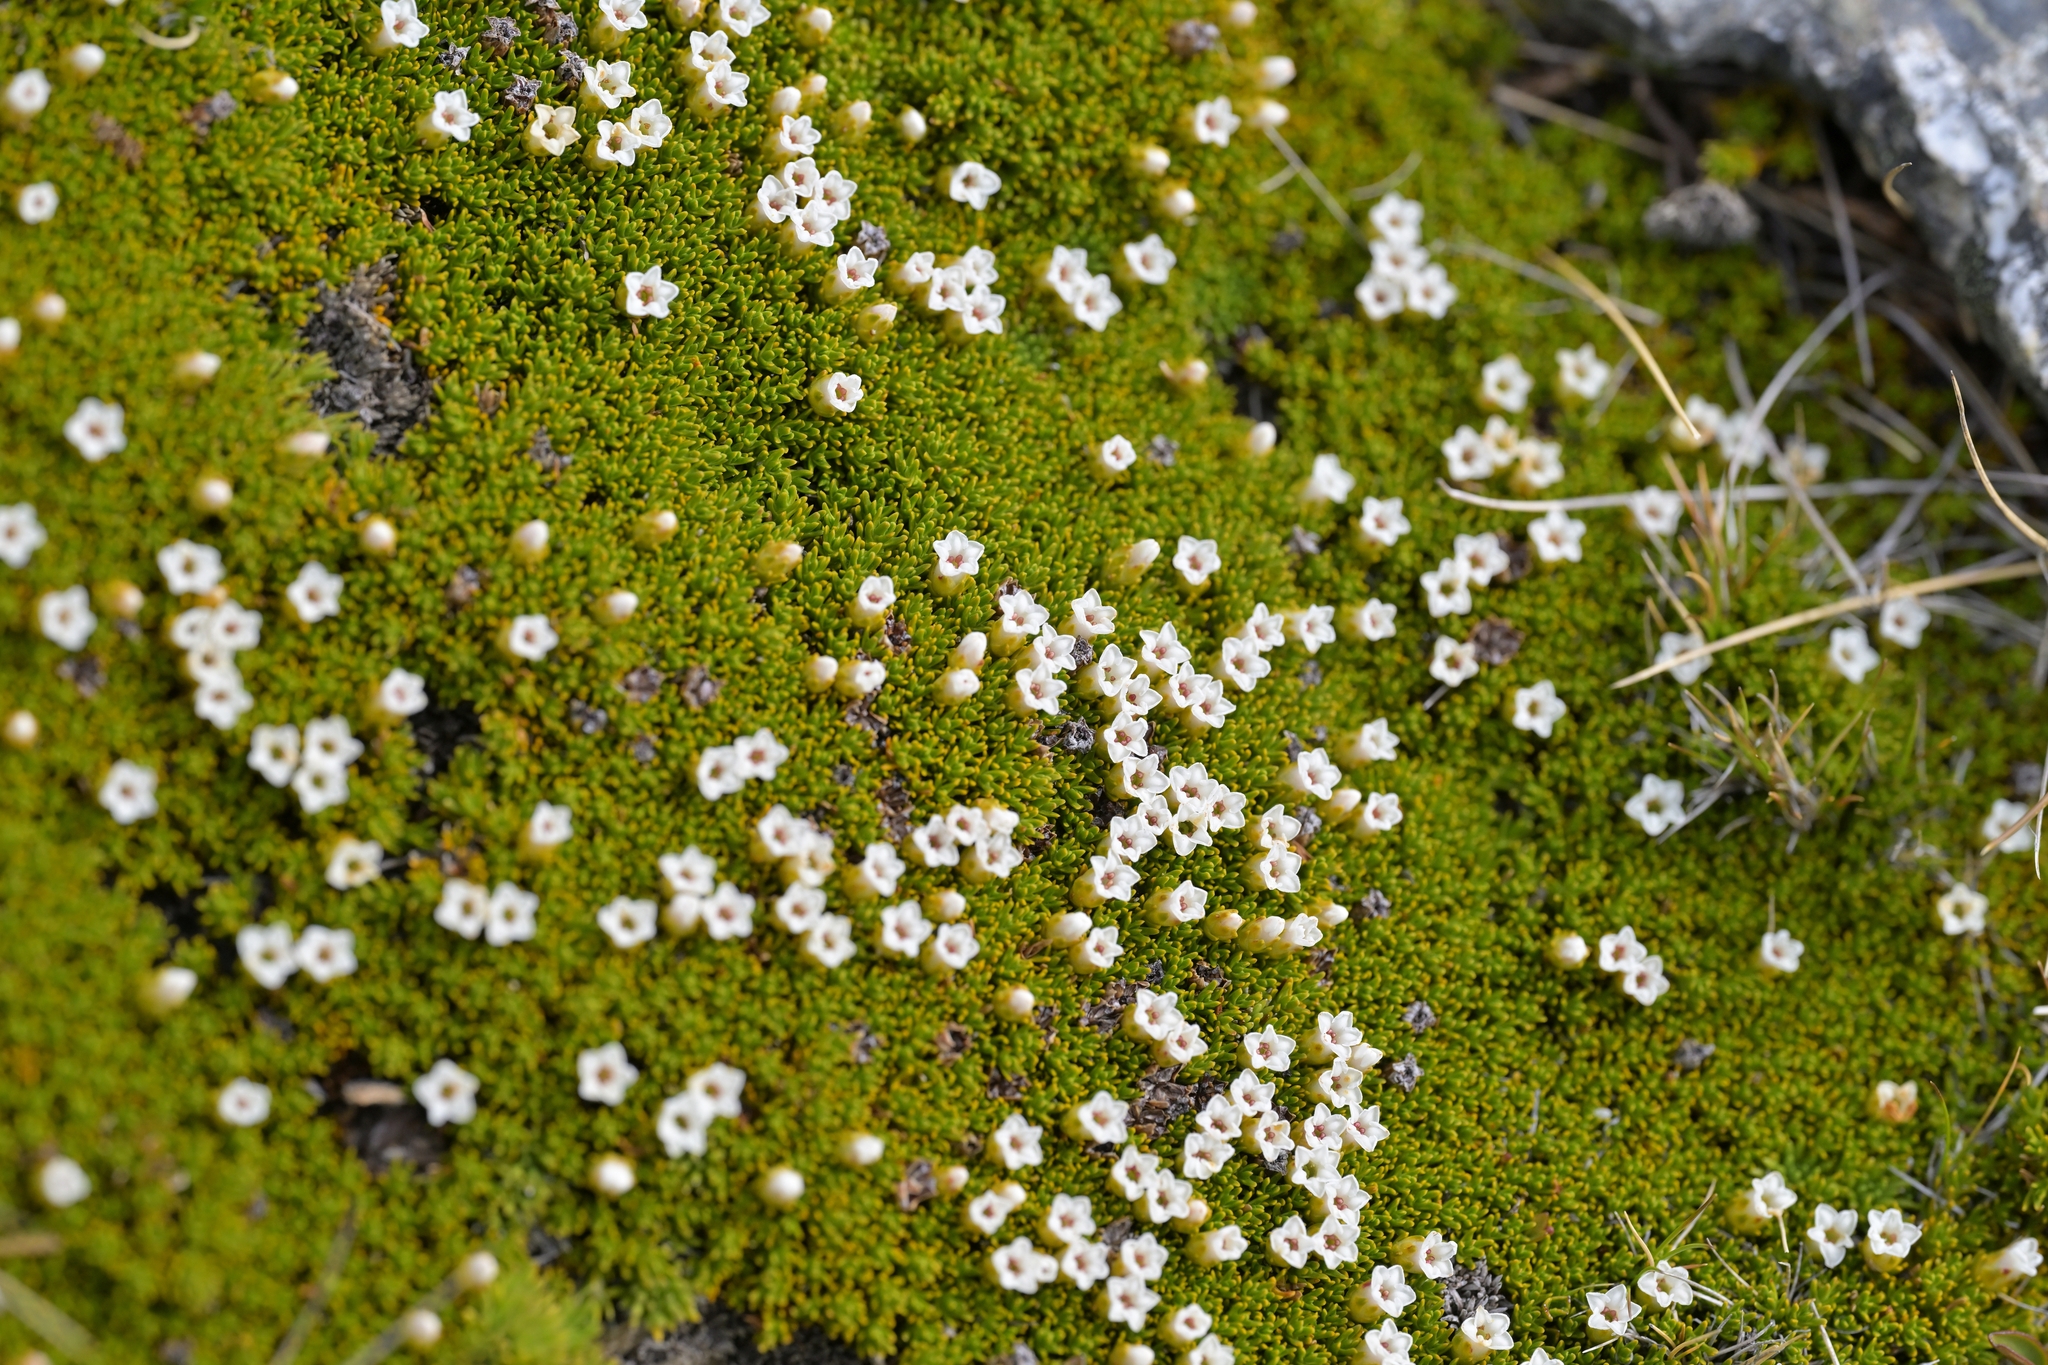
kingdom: Plantae
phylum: Tracheophyta
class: Magnoliopsida
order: Ericales
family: Ericaceae
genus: Dracophyllum
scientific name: Dracophyllum muscoides
